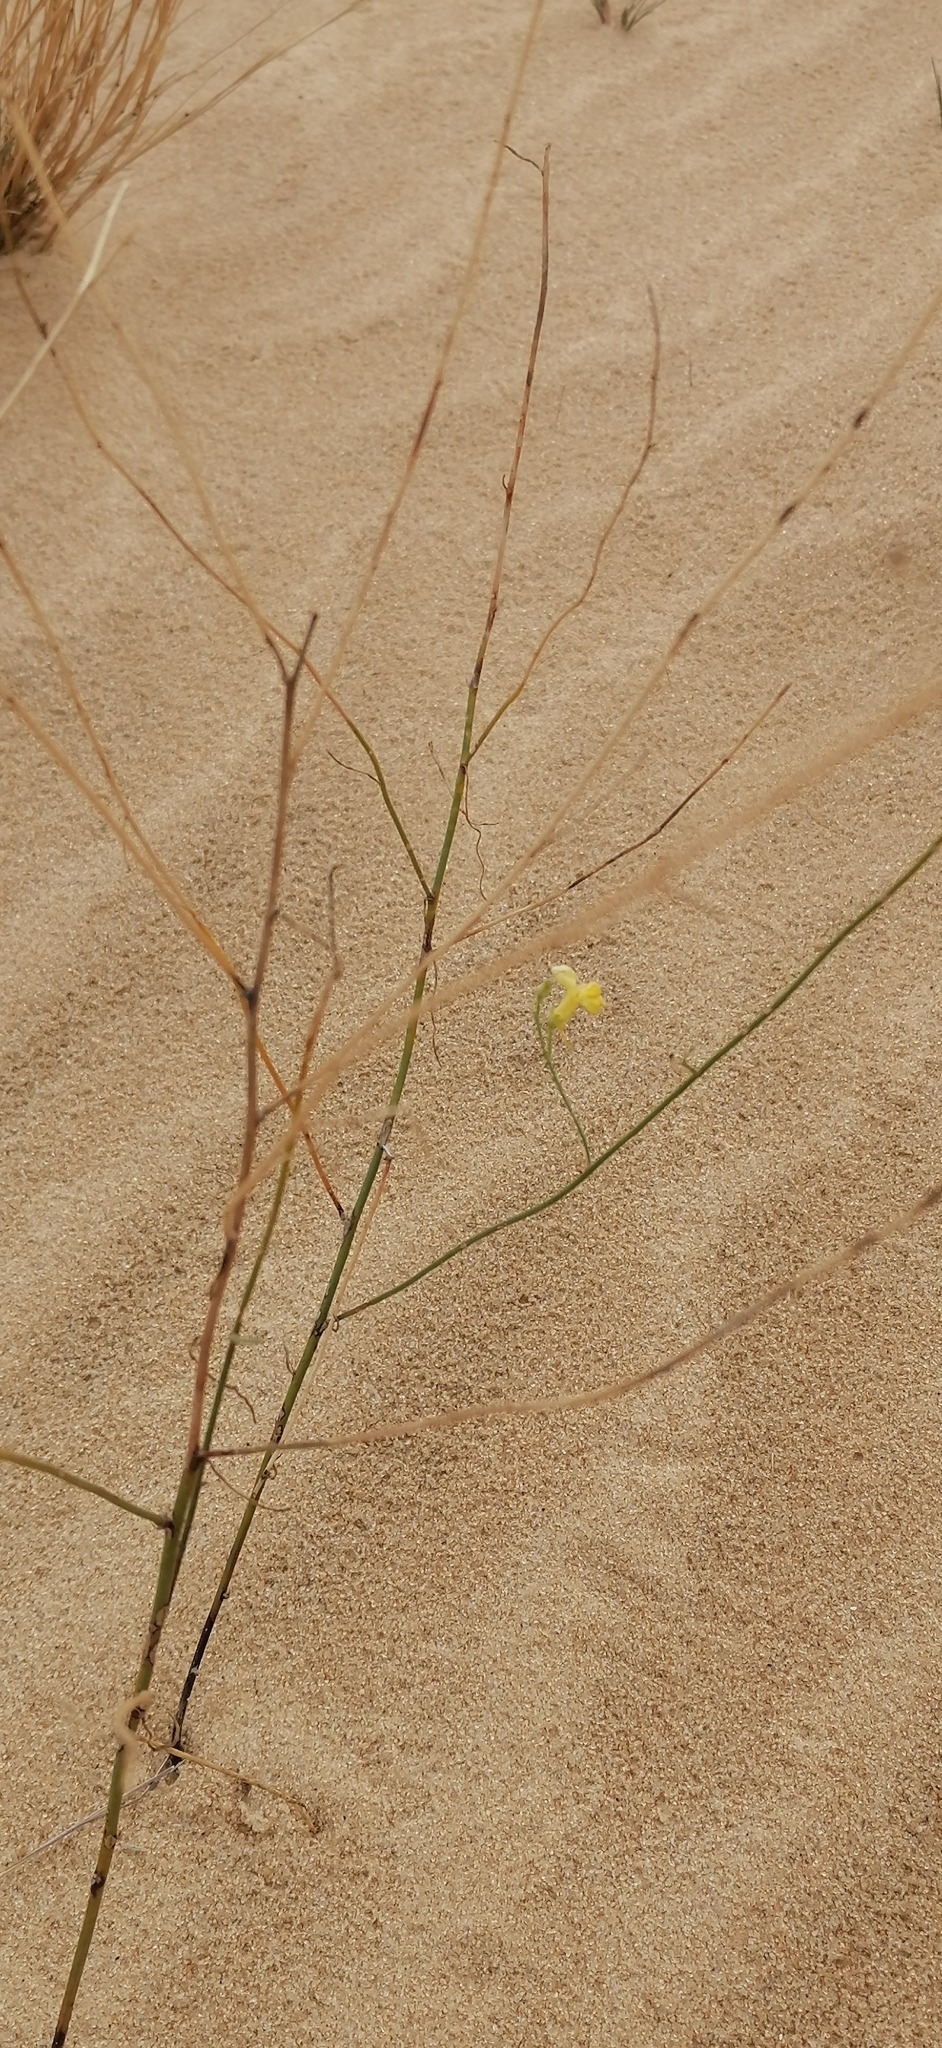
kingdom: Plantae
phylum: Tracheophyta
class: Magnoliopsida
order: Lamiales
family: Plantaginaceae
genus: Linaria
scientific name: Linaria odora
